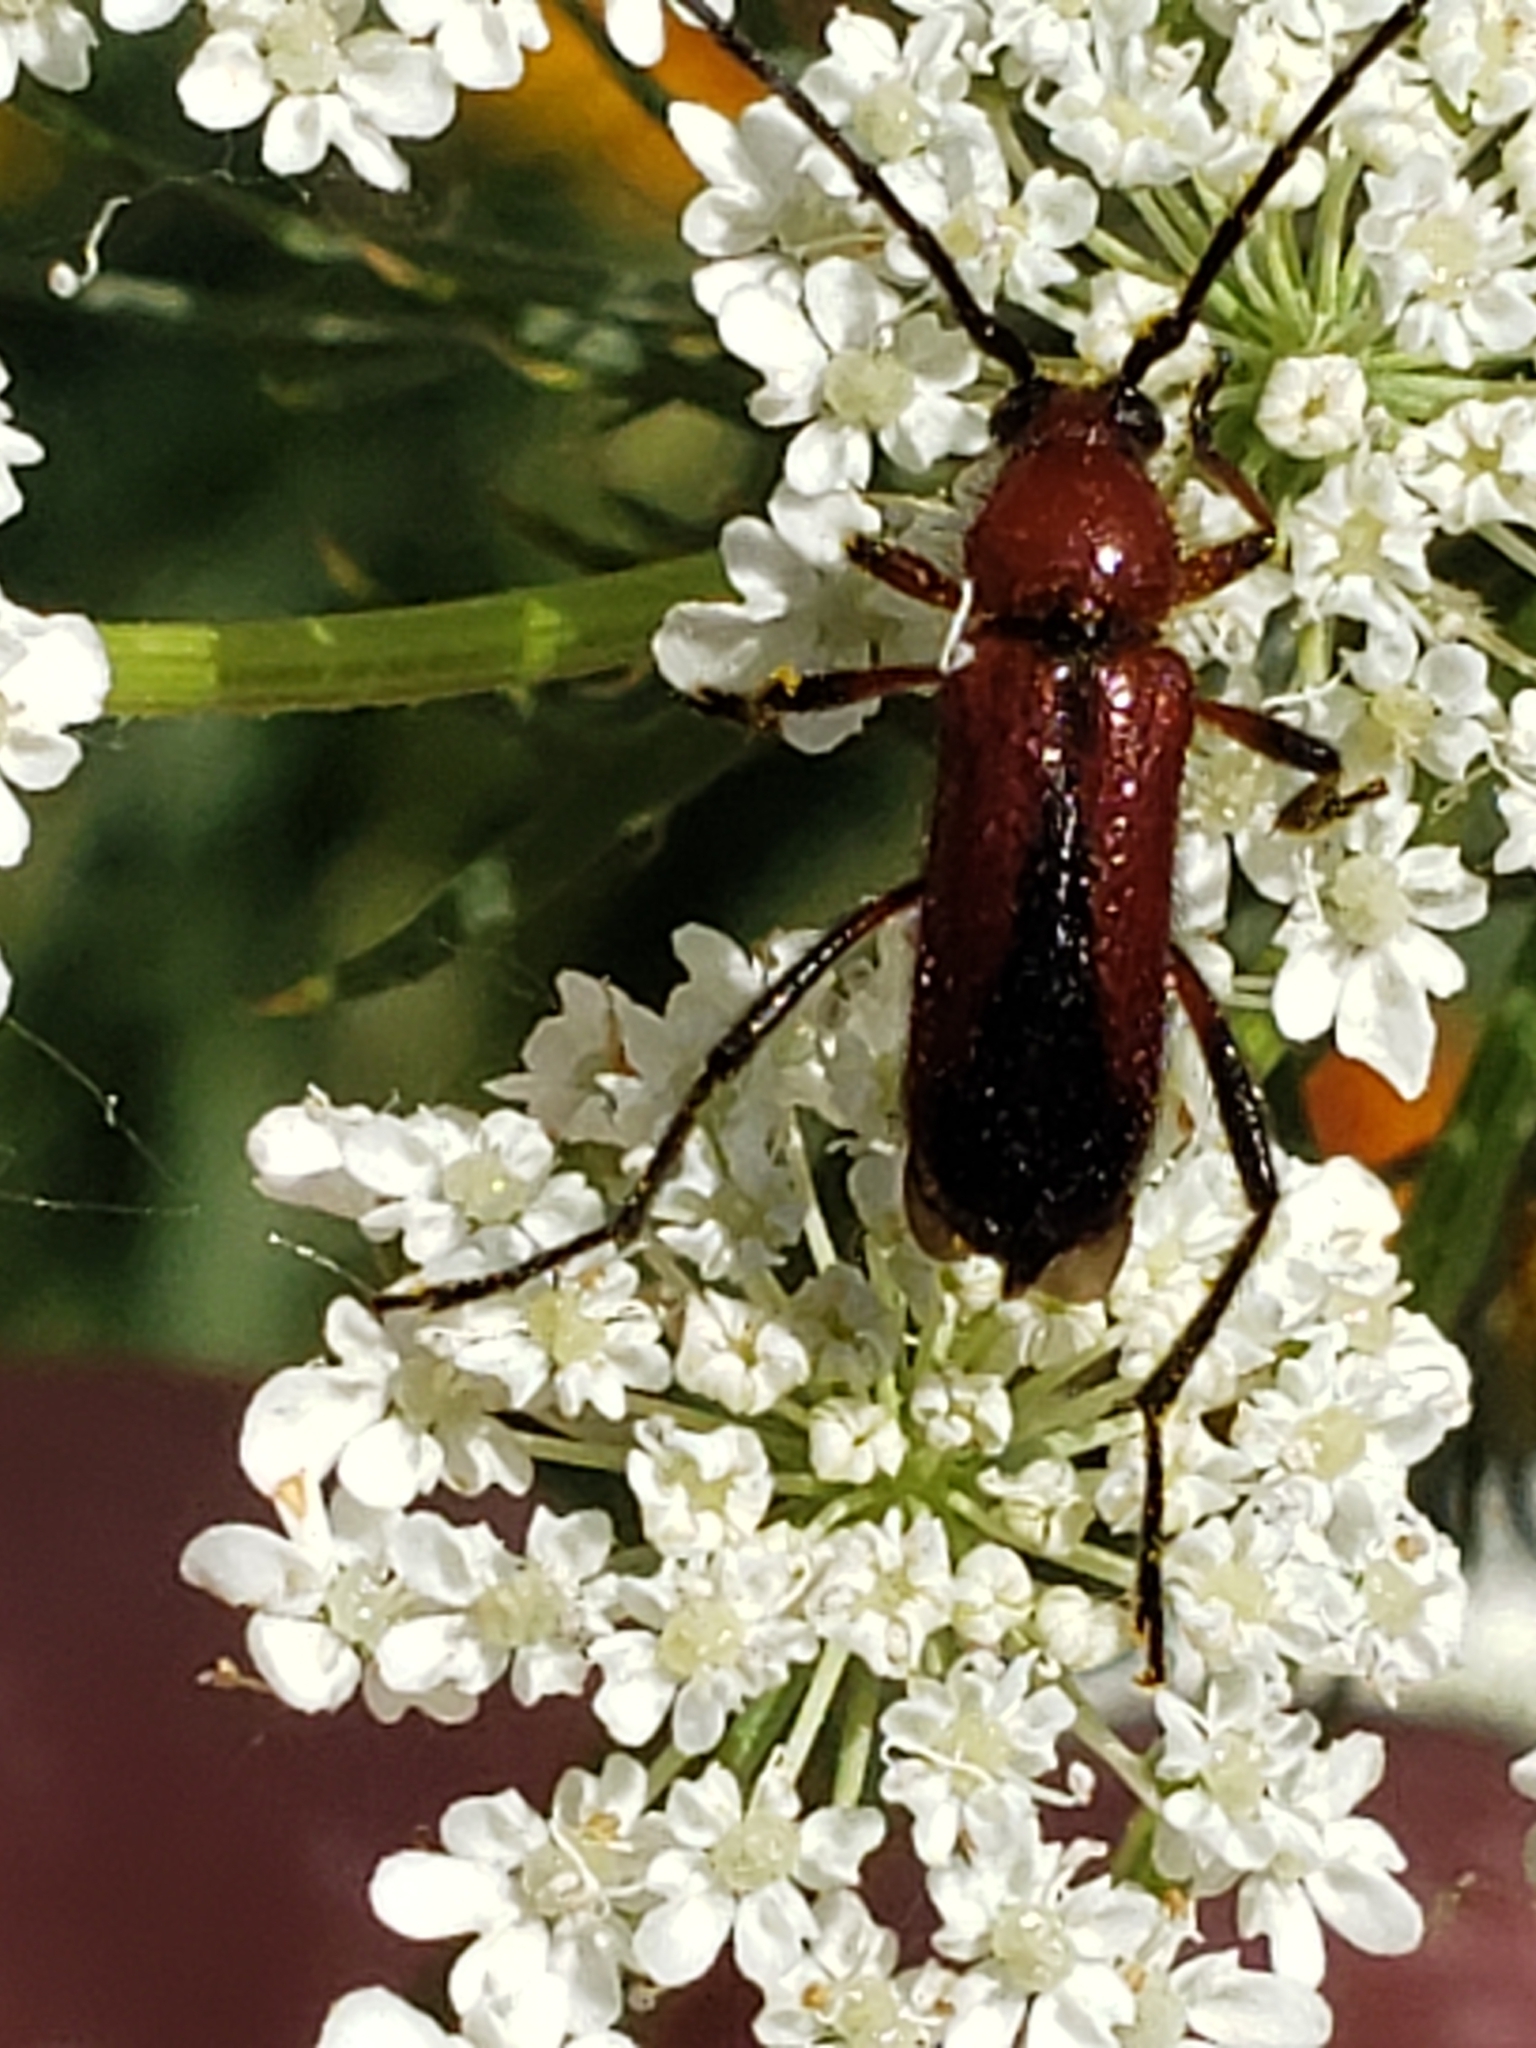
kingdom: Animalia
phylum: Arthropoda
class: Insecta
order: Coleoptera
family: Cerambycidae
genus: Batyle
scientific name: Batyle suturalis
